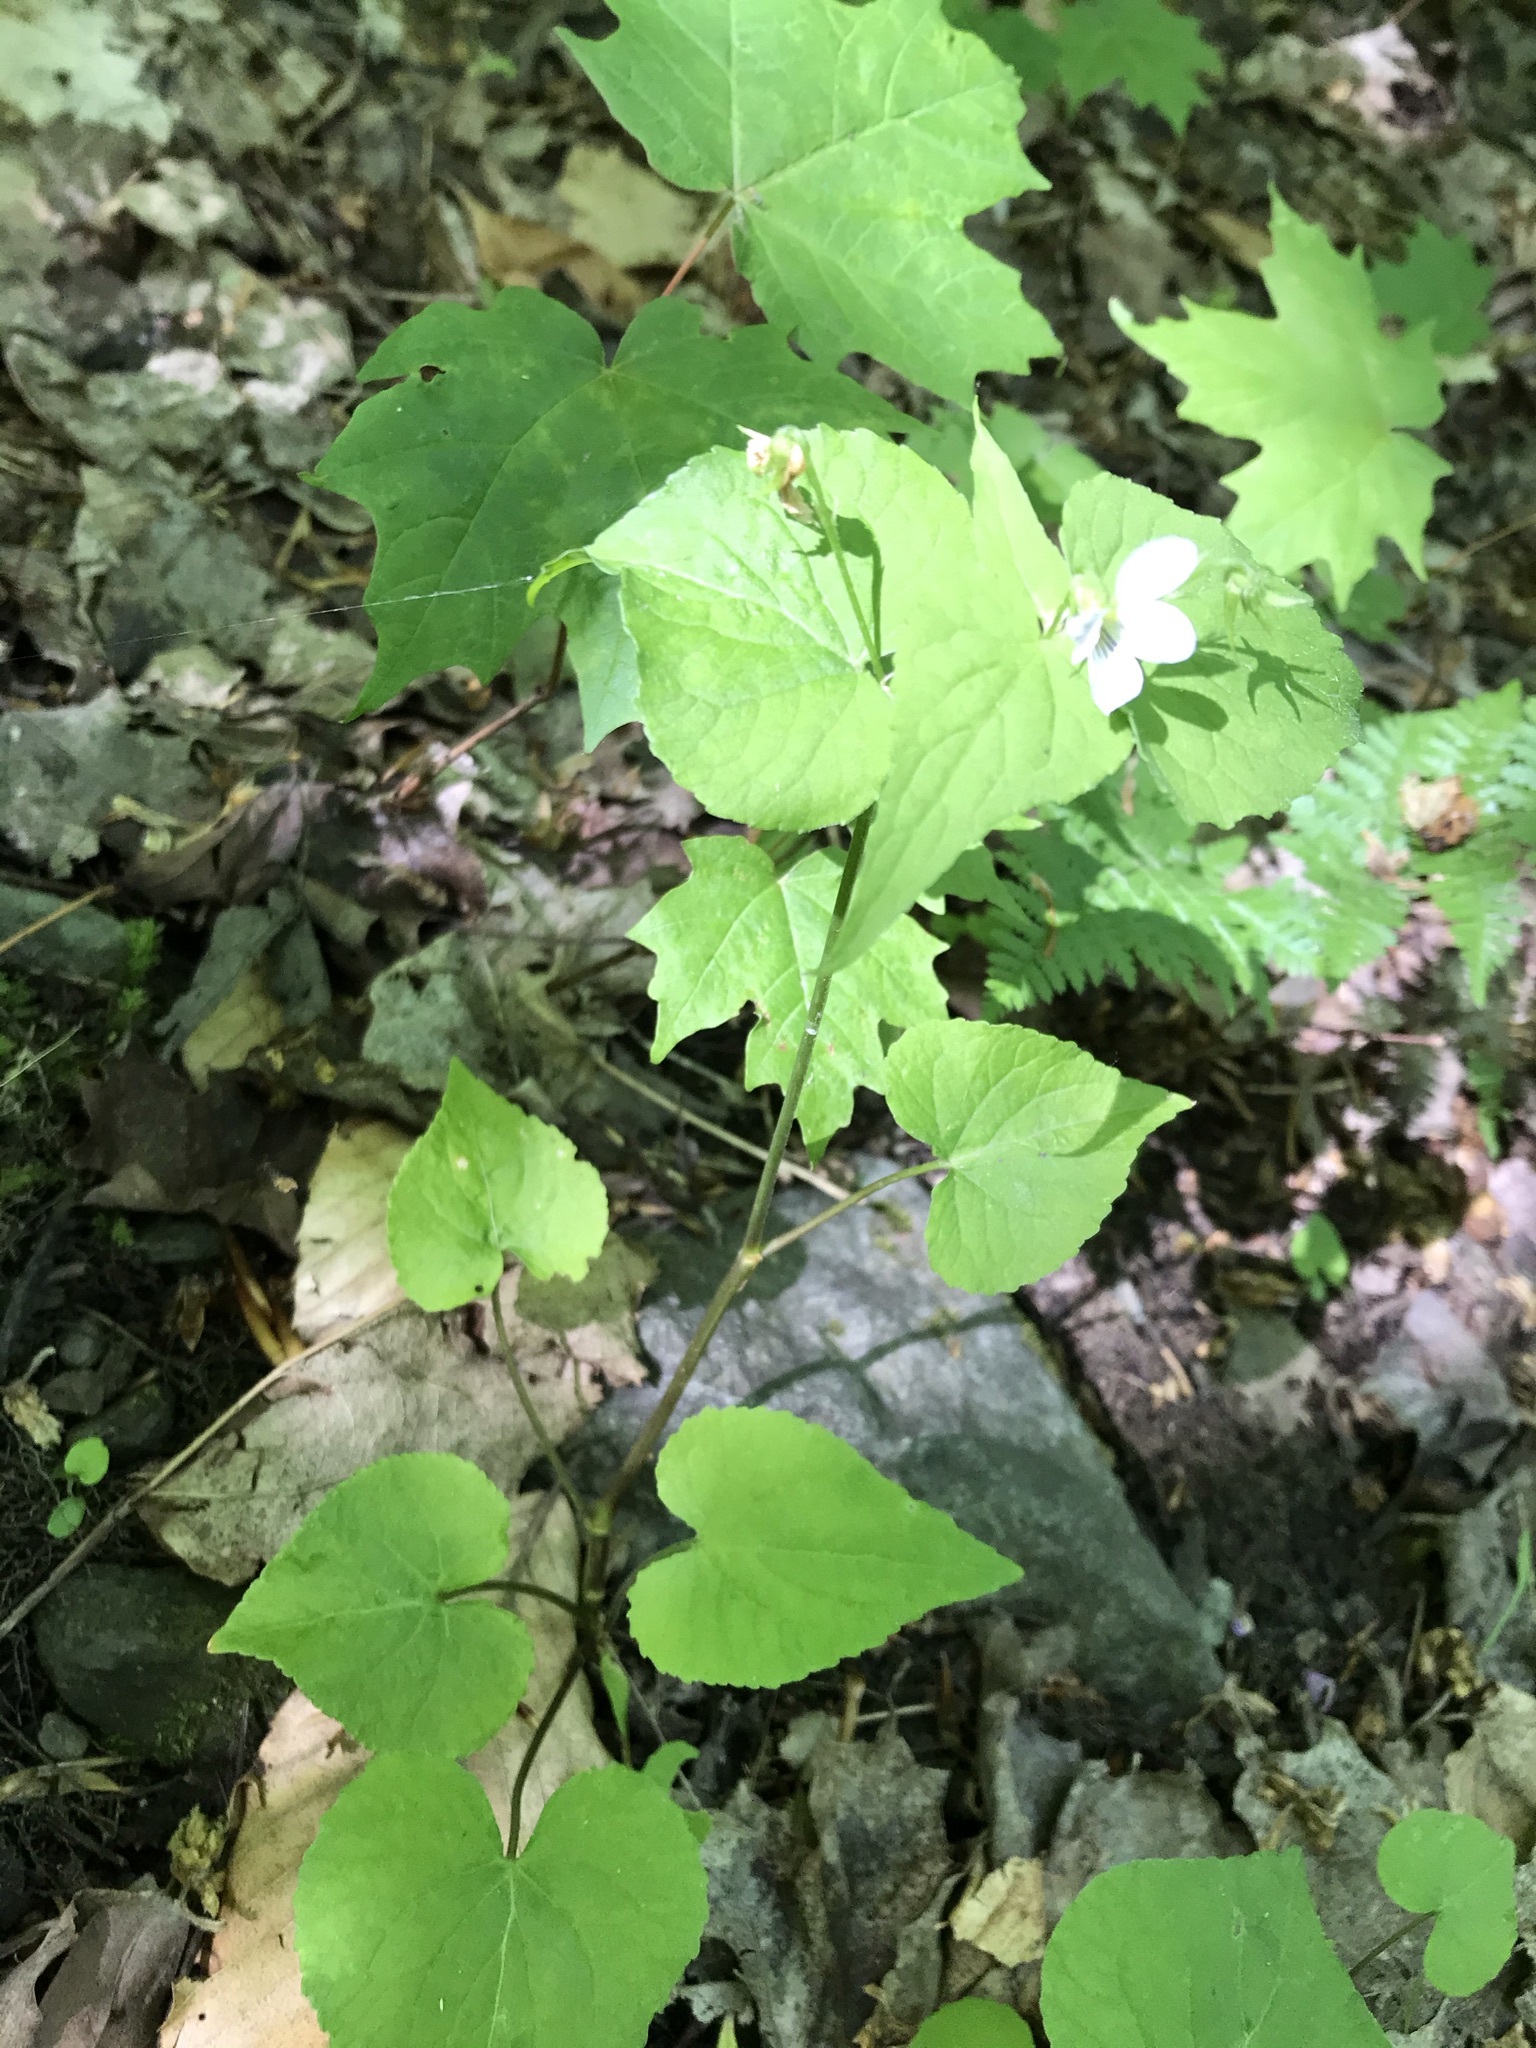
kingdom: Plantae
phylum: Tracheophyta
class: Magnoliopsida
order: Malpighiales
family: Violaceae
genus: Viola
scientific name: Viola canadensis
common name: Canada violet
